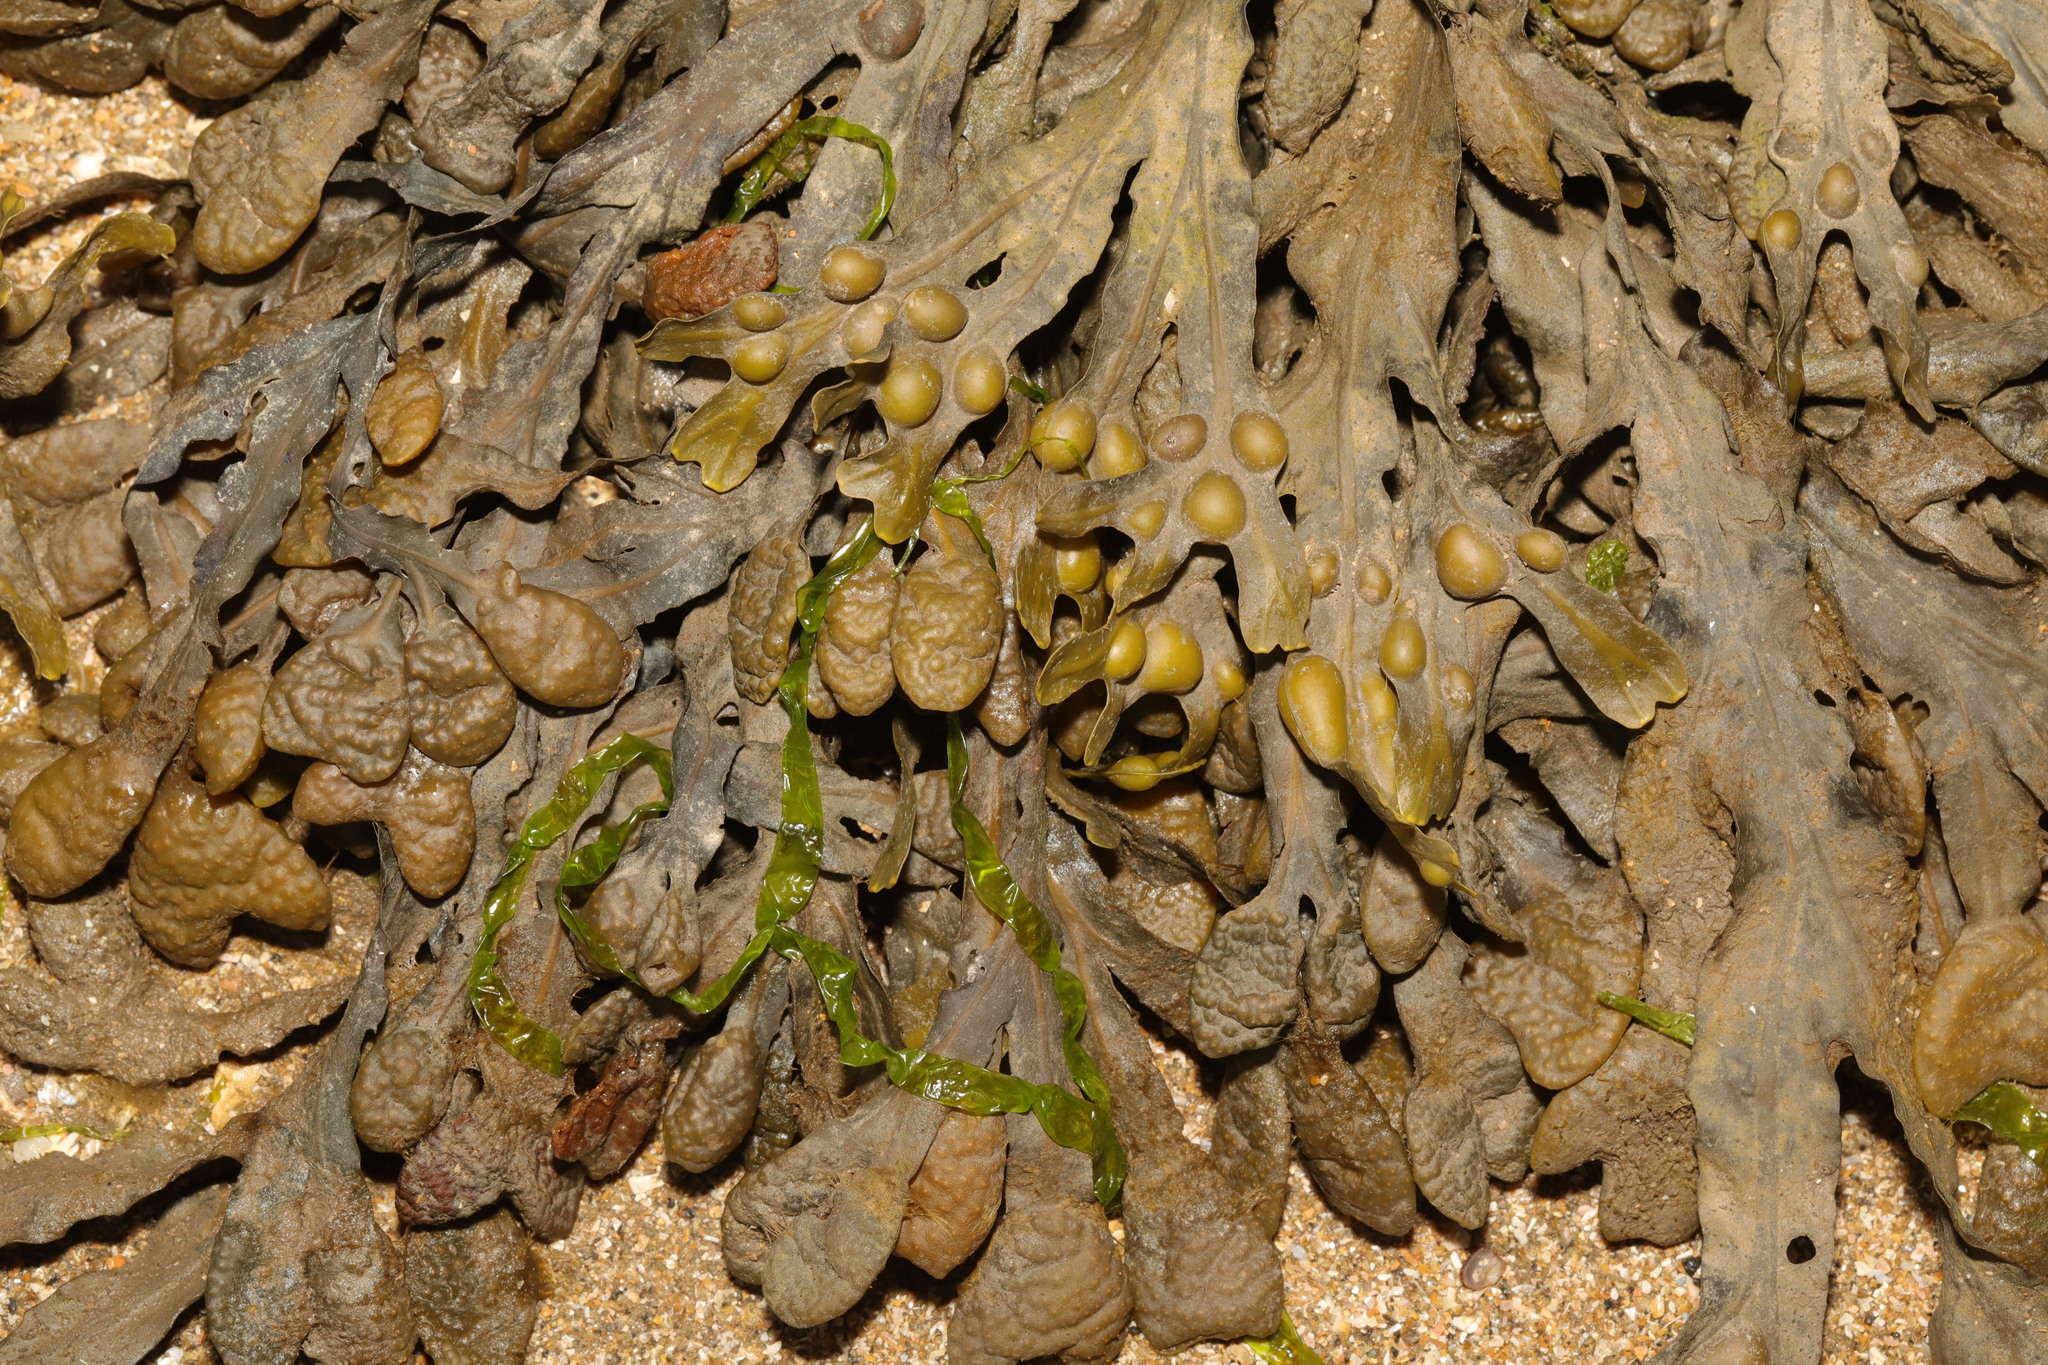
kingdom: Chromista
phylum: Ochrophyta
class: Phaeophyceae
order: Fucales
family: Fucaceae
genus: Fucus
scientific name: Fucus vesiculosus
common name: Bladder wrack
